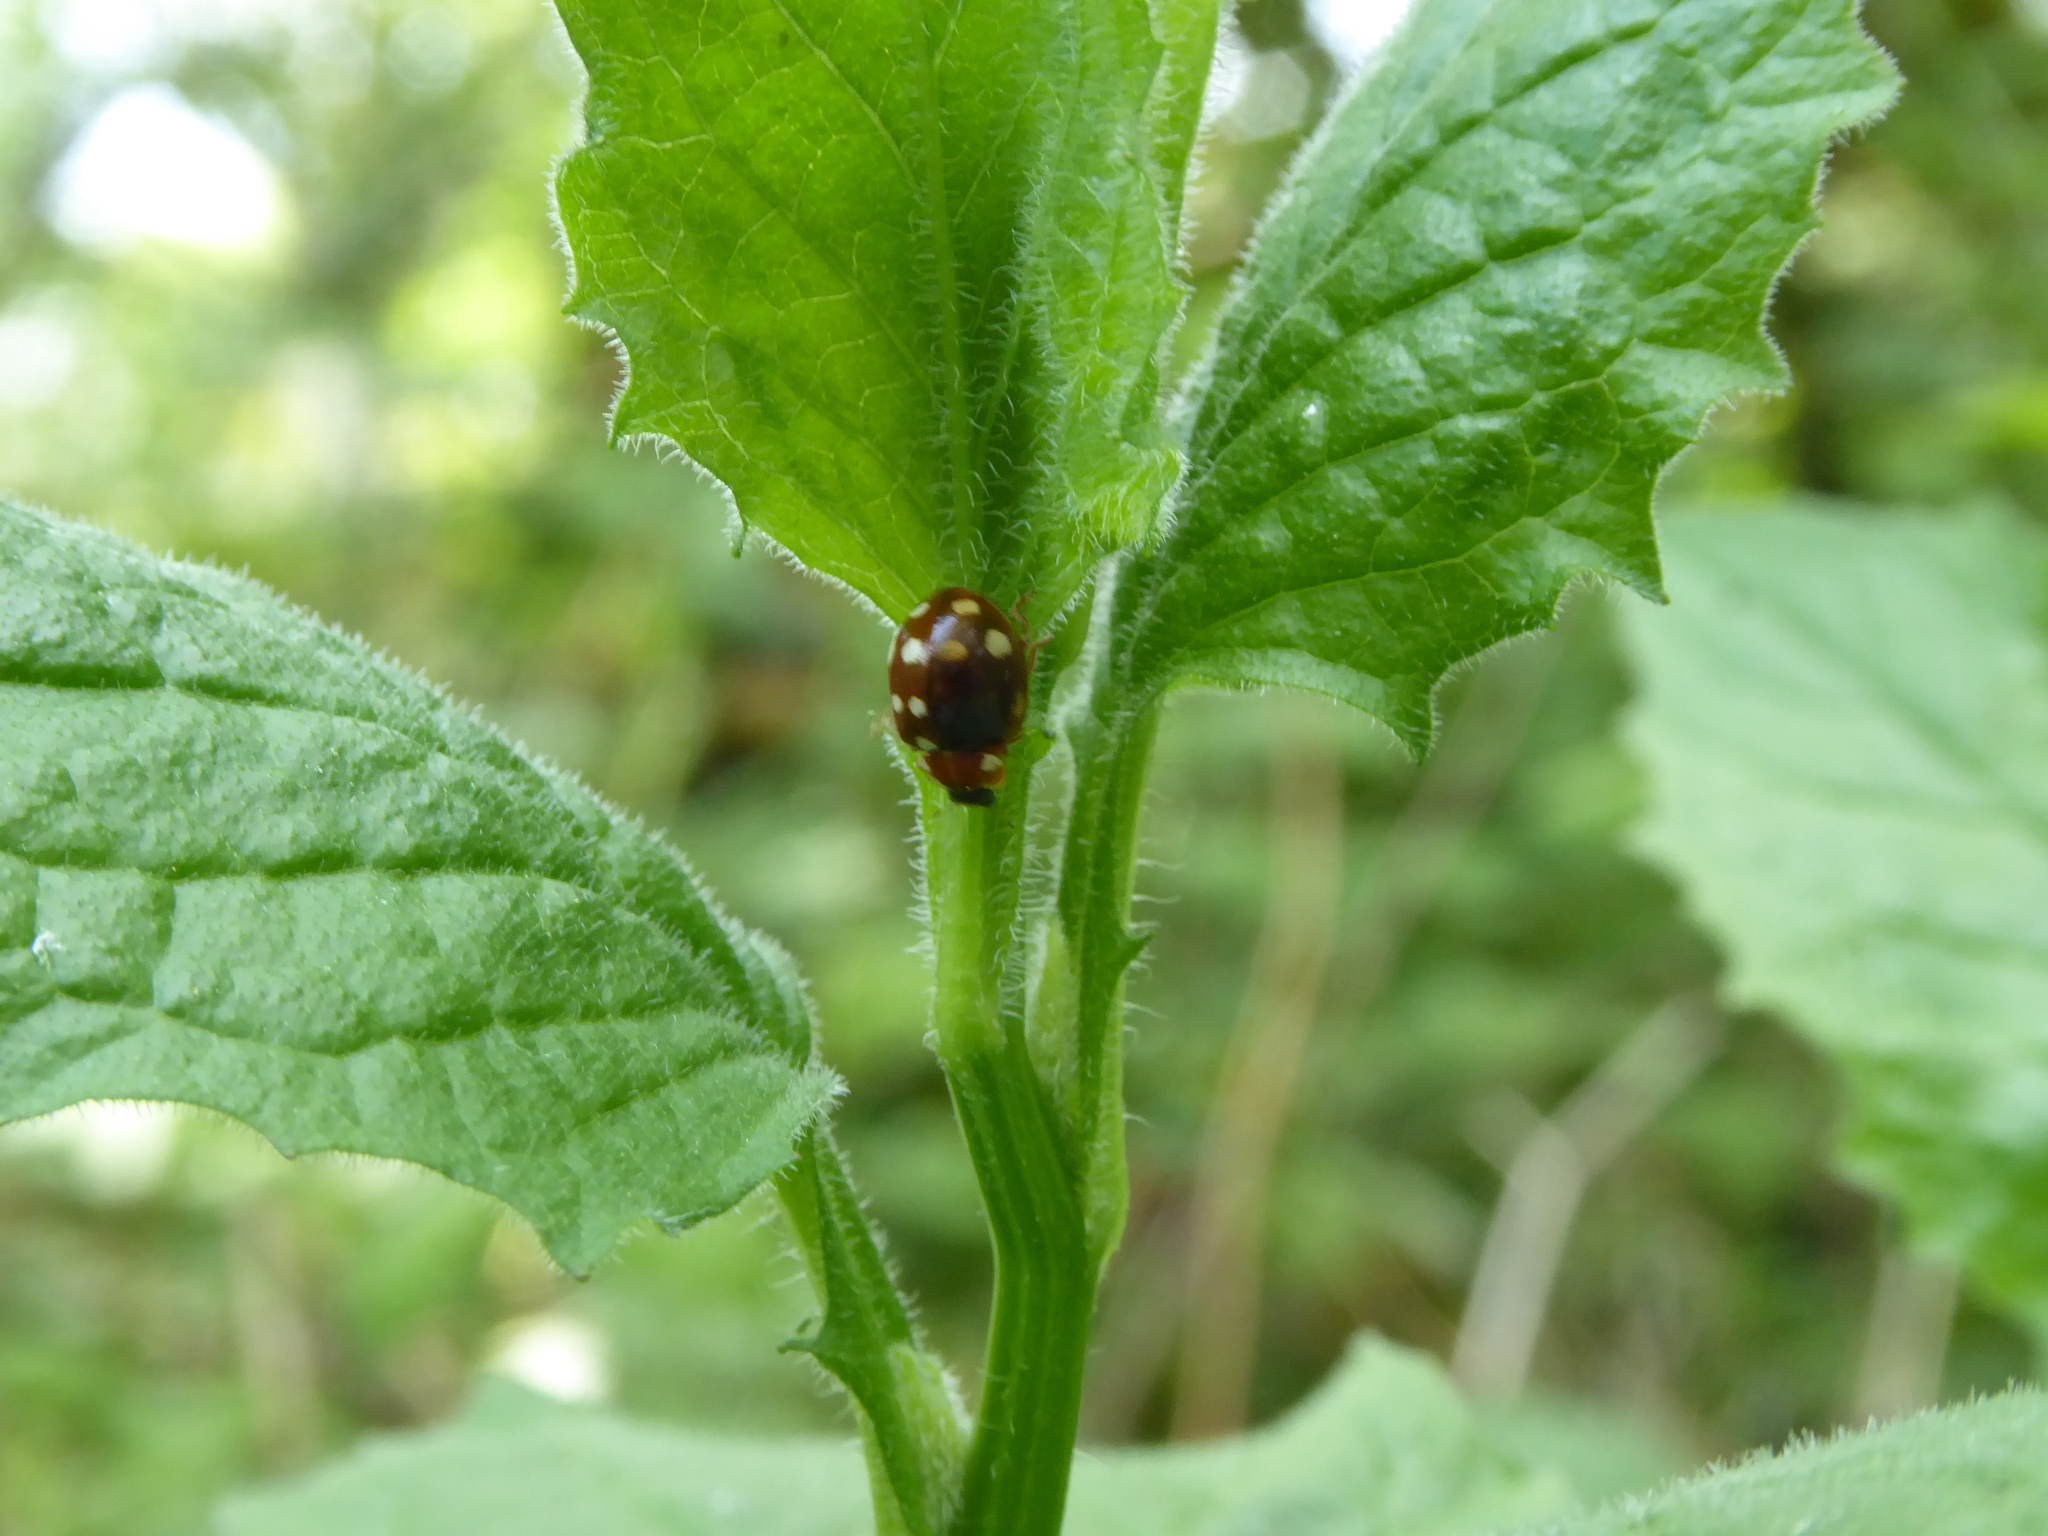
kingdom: Animalia
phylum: Arthropoda
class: Insecta
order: Coleoptera
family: Coccinellidae
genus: Calvia
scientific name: Calvia quatuordecimguttata
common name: Cream-spot ladybird
